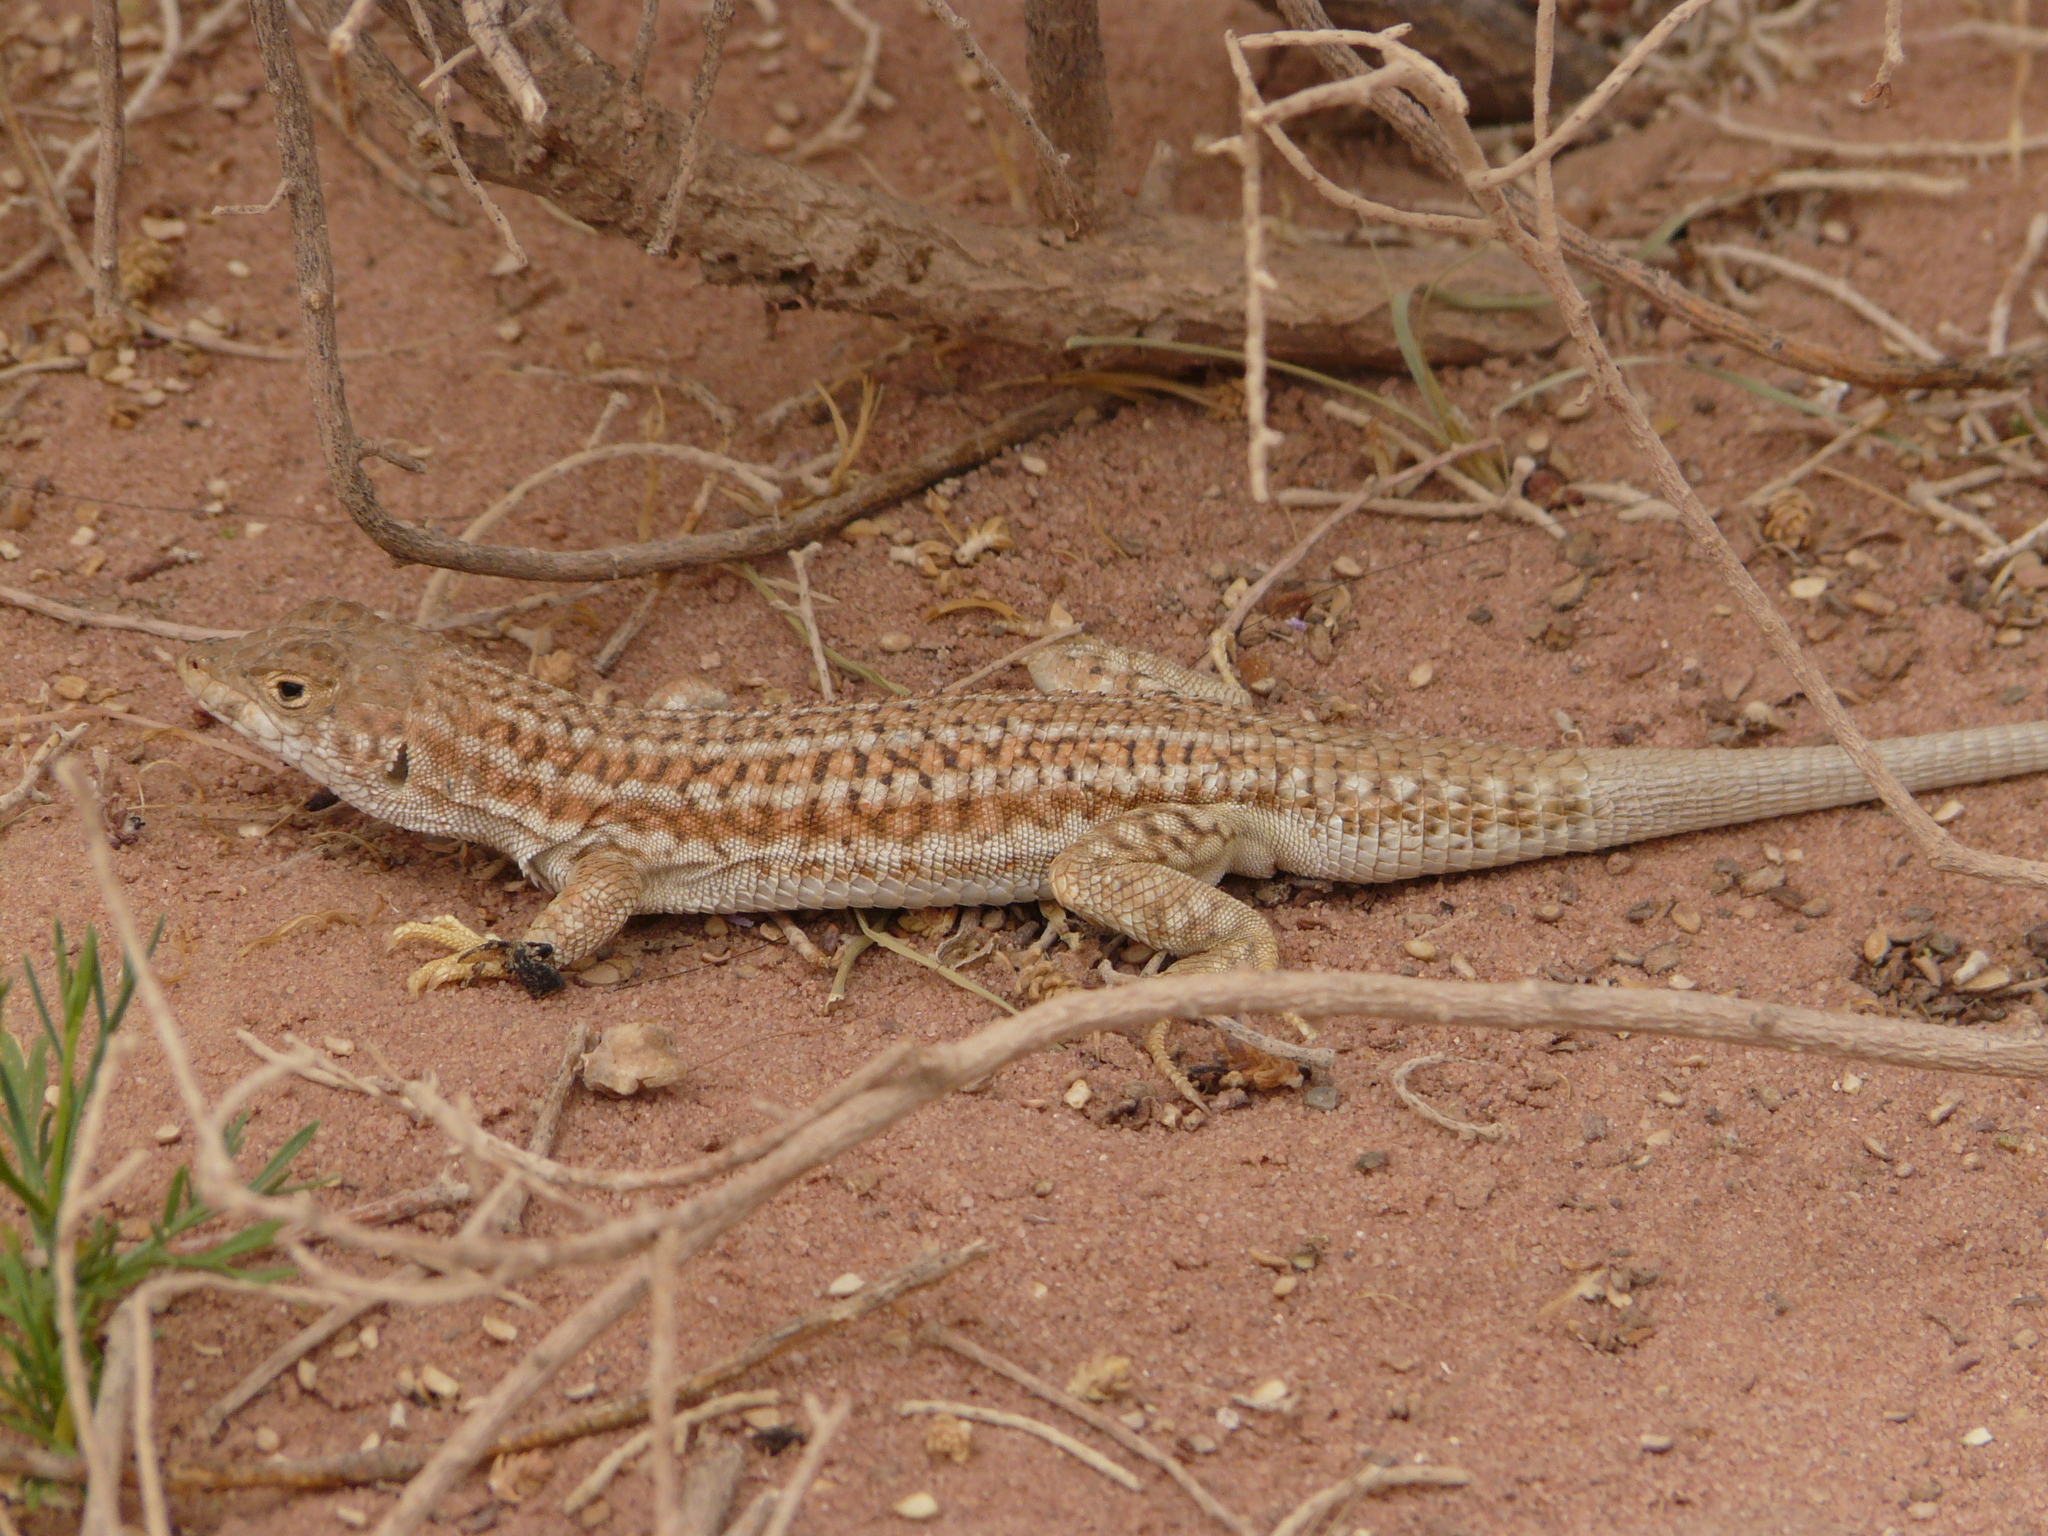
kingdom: Animalia
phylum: Chordata
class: Squamata
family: Lacertidae
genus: Acanthodactylus
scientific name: Acanthodactylus boskianus
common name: Bosc’s fringe-toed lizard
